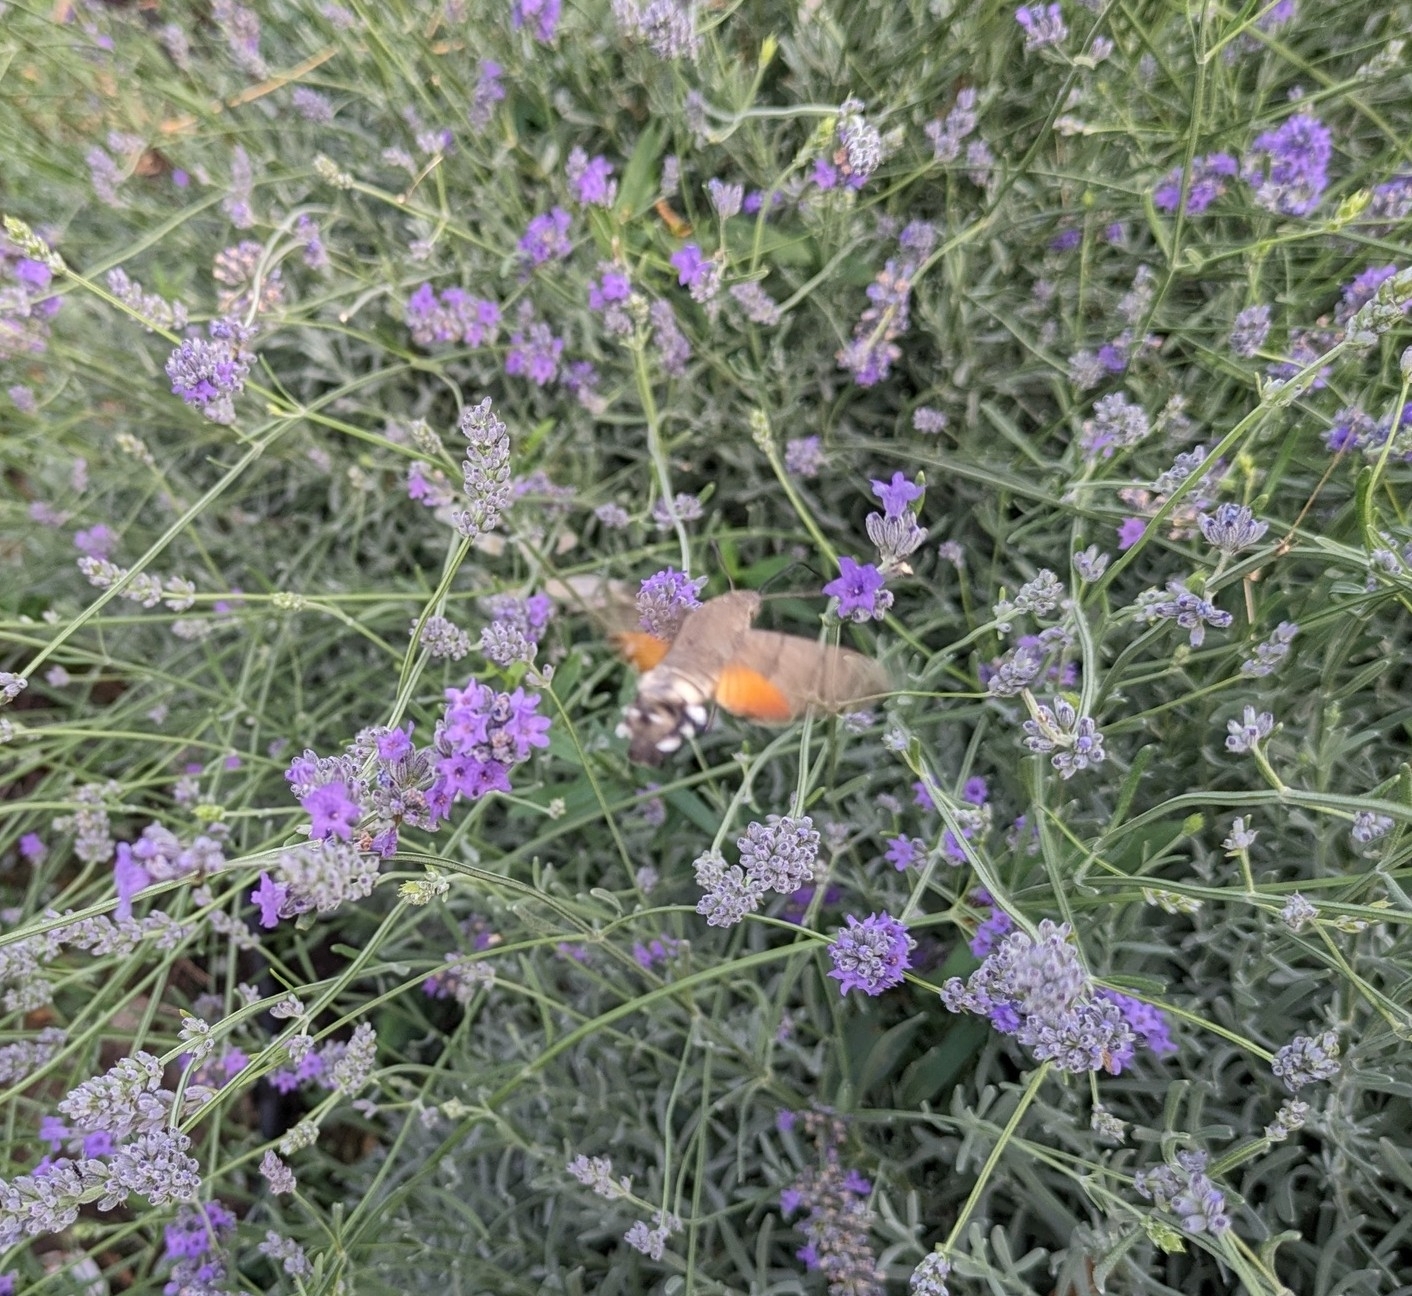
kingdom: Animalia
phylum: Arthropoda
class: Insecta
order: Lepidoptera
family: Sphingidae
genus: Macroglossum
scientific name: Macroglossum stellatarum
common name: Humming-bird hawk-moth
